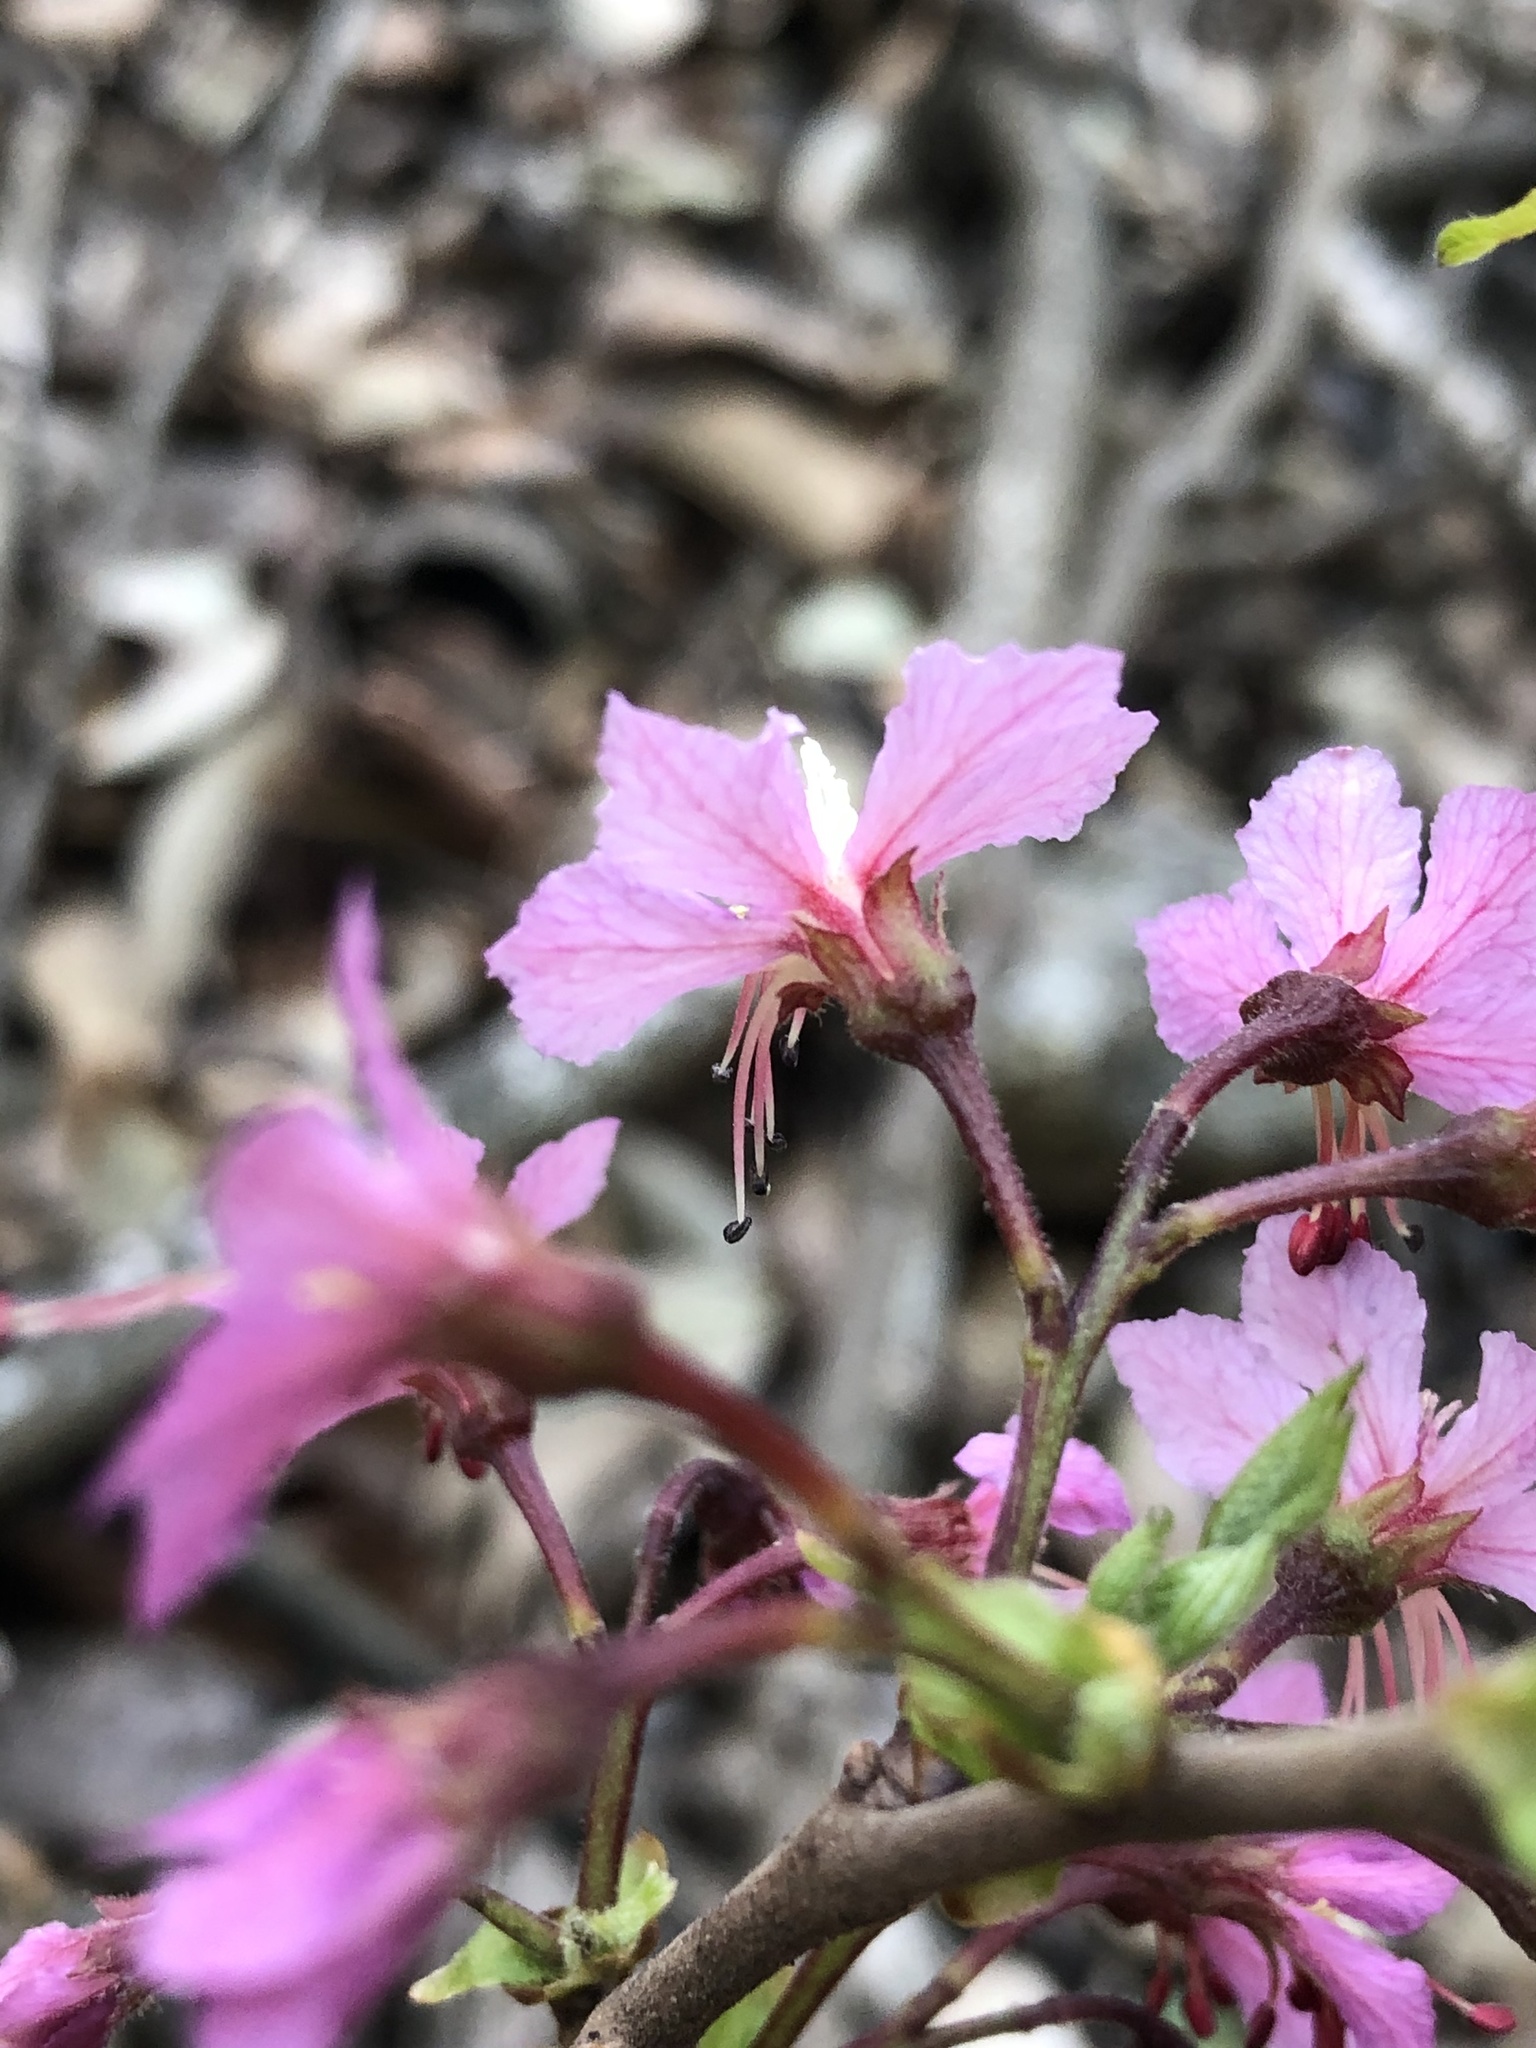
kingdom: Plantae
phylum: Tracheophyta
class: Magnoliopsida
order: Sapindales
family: Sapindaceae
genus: Ungnadia
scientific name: Ungnadia speciosa
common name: Texas-buckeye
